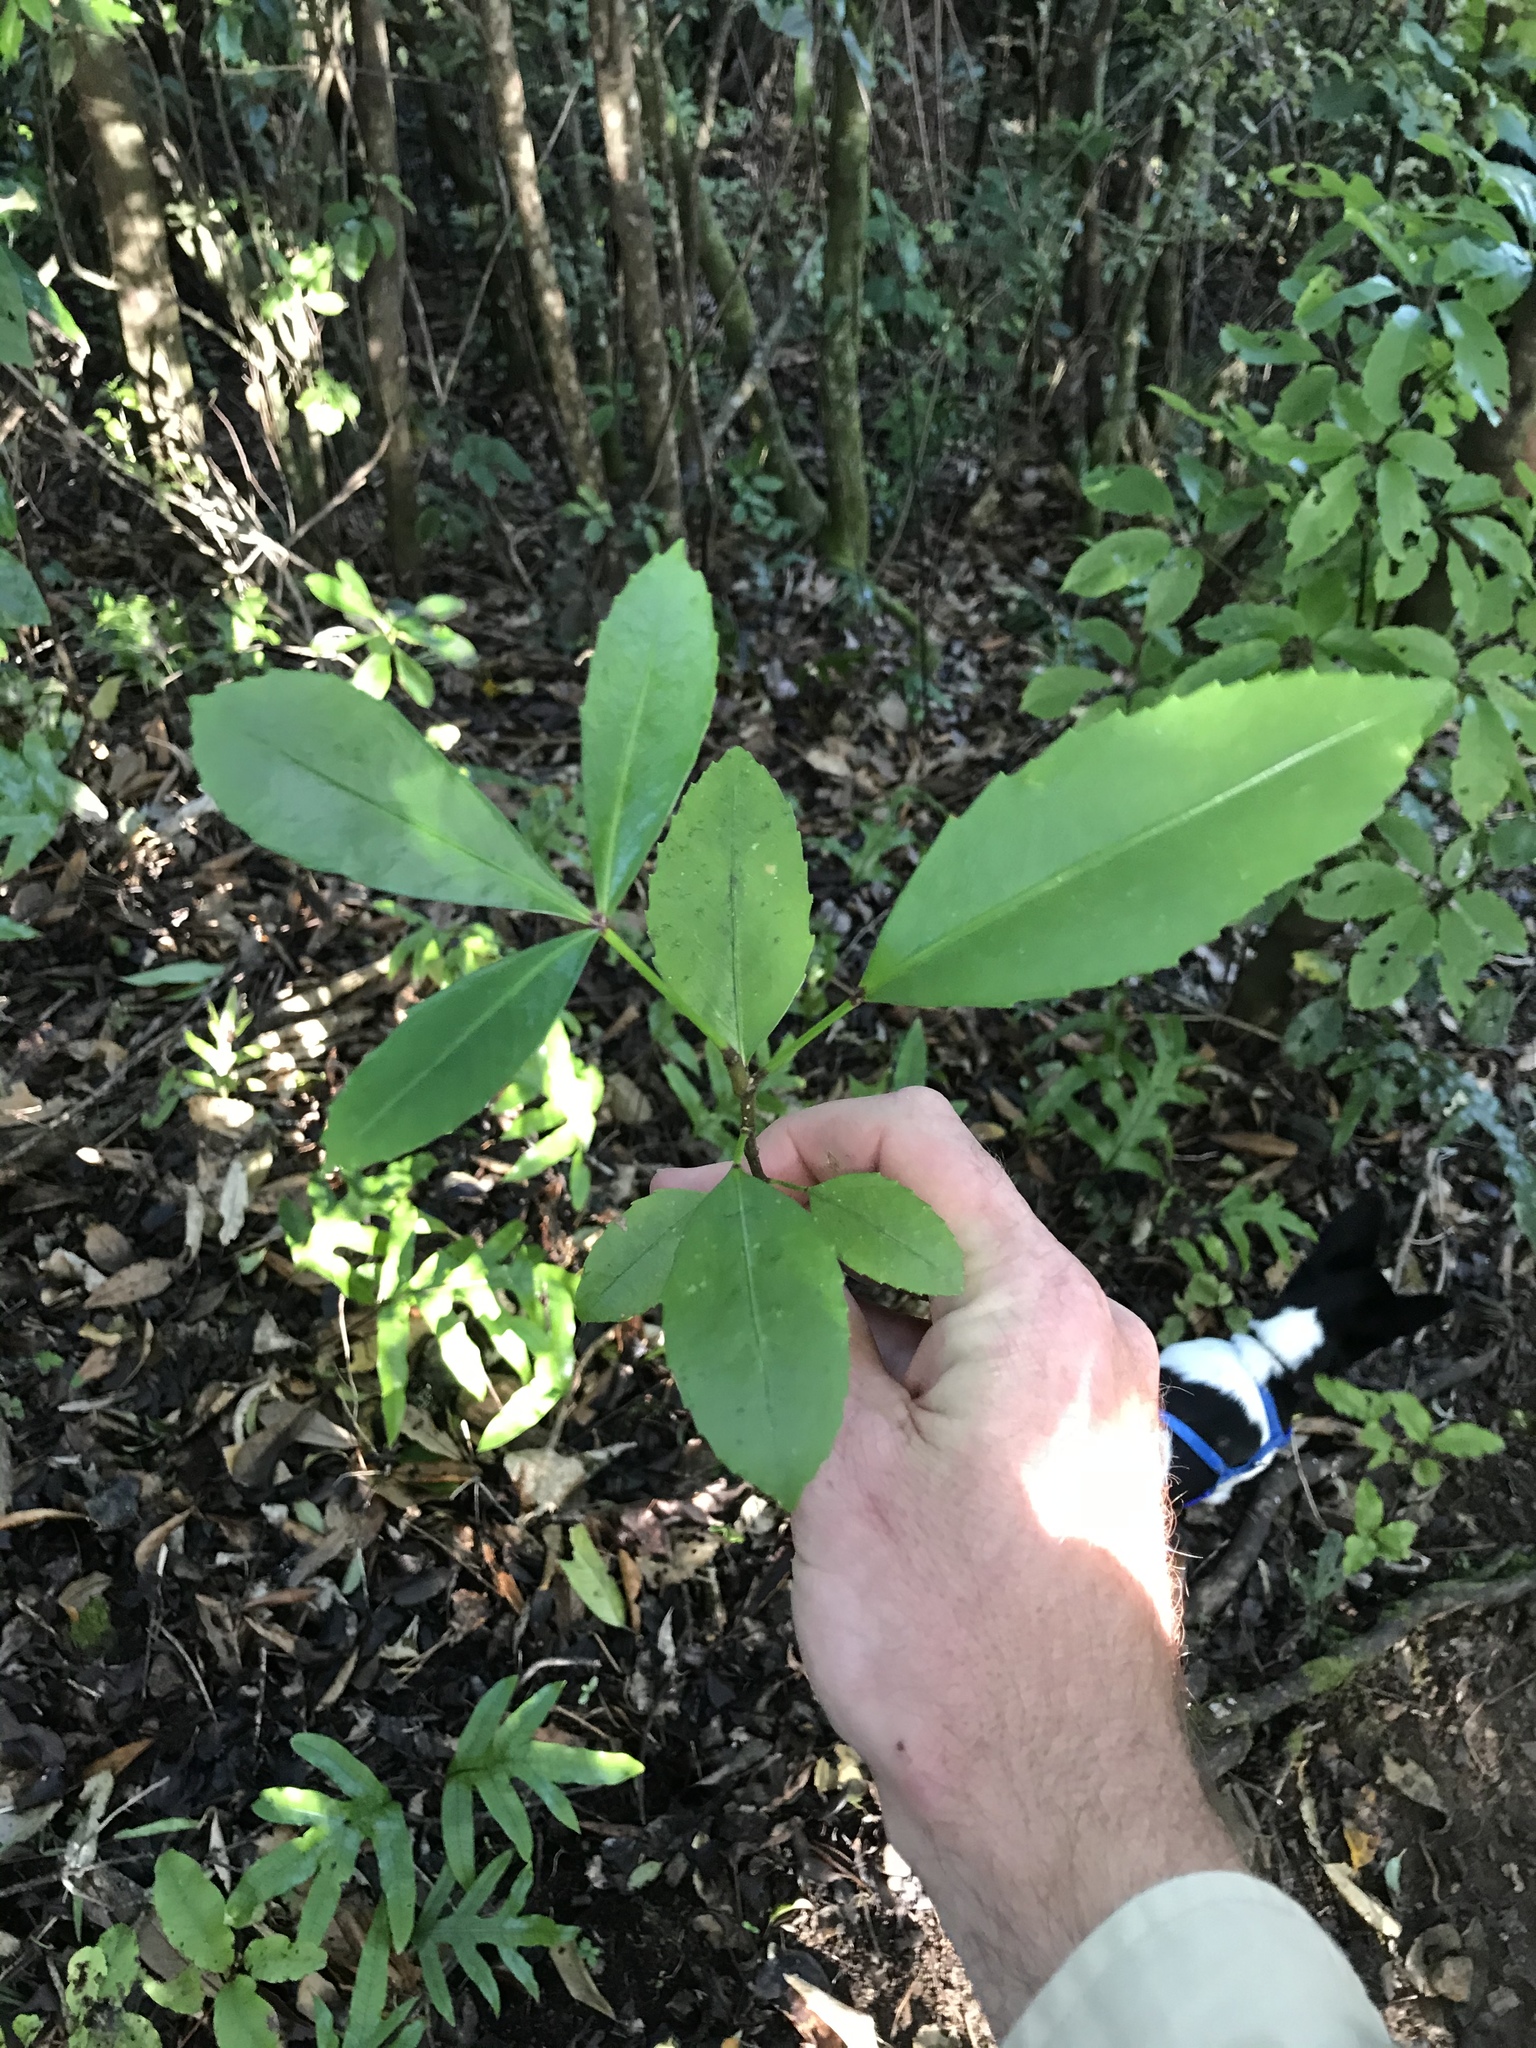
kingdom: Plantae
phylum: Tracheophyta
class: Magnoliopsida
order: Apiales
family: Araliaceae
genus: Pseudopanax
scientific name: Pseudopanax
